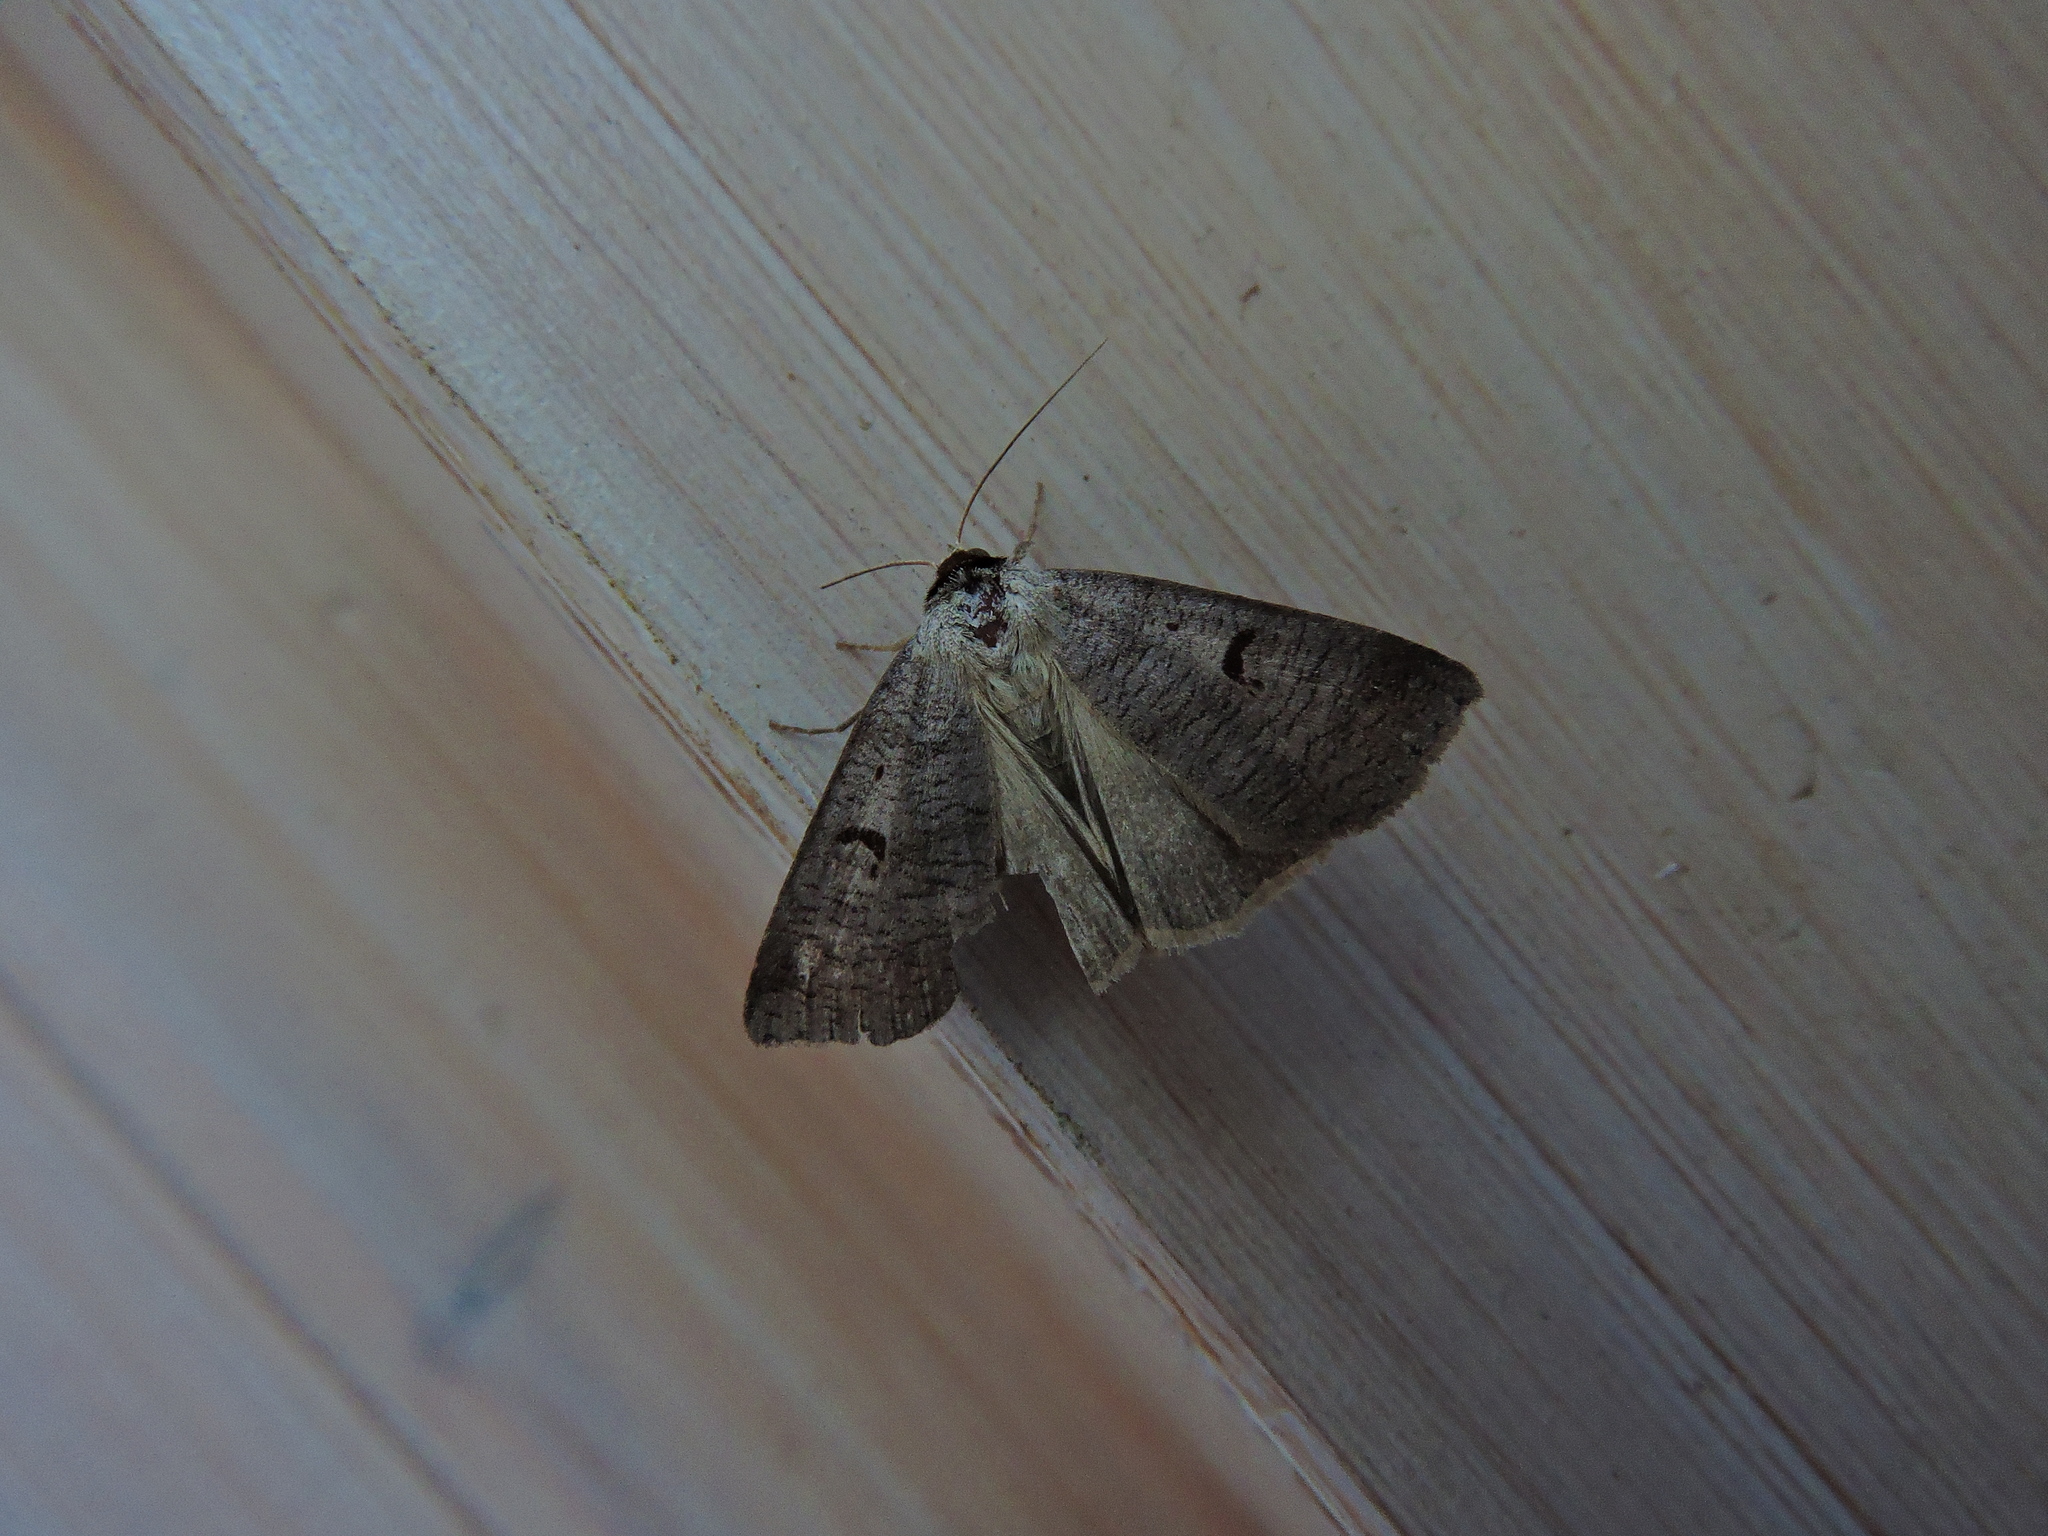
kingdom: Animalia
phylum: Arthropoda
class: Insecta
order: Lepidoptera
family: Erebidae
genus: Lygephila
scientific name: Lygephila pastinum
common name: Blackneck
